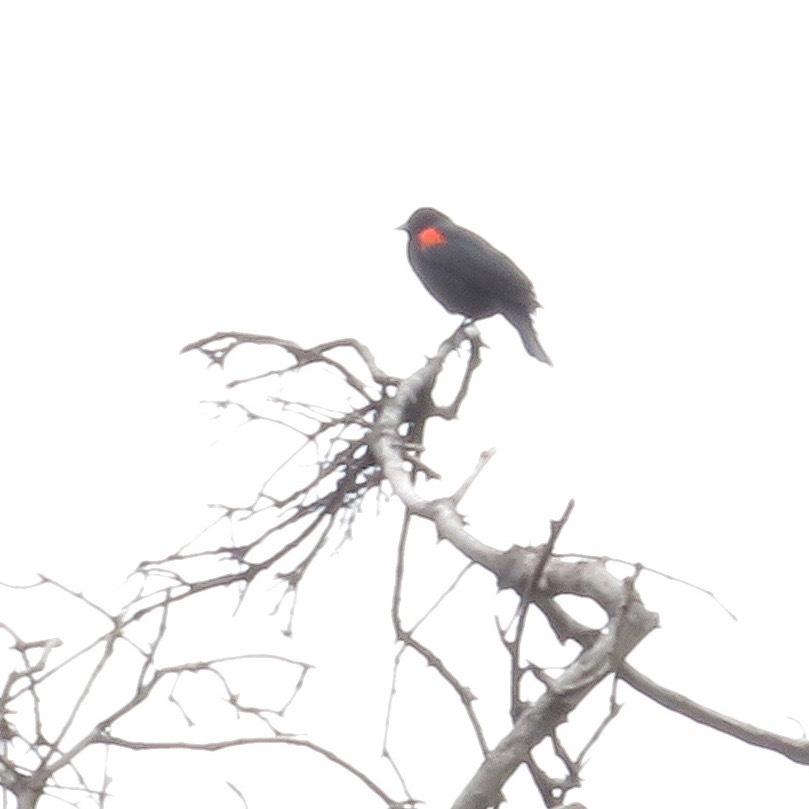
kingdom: Animalia
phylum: Chordata
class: Aves
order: Passeriformes
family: Icteridae
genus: Agelaius
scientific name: Agelaius phoeniceus
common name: Red-winged blackbird
